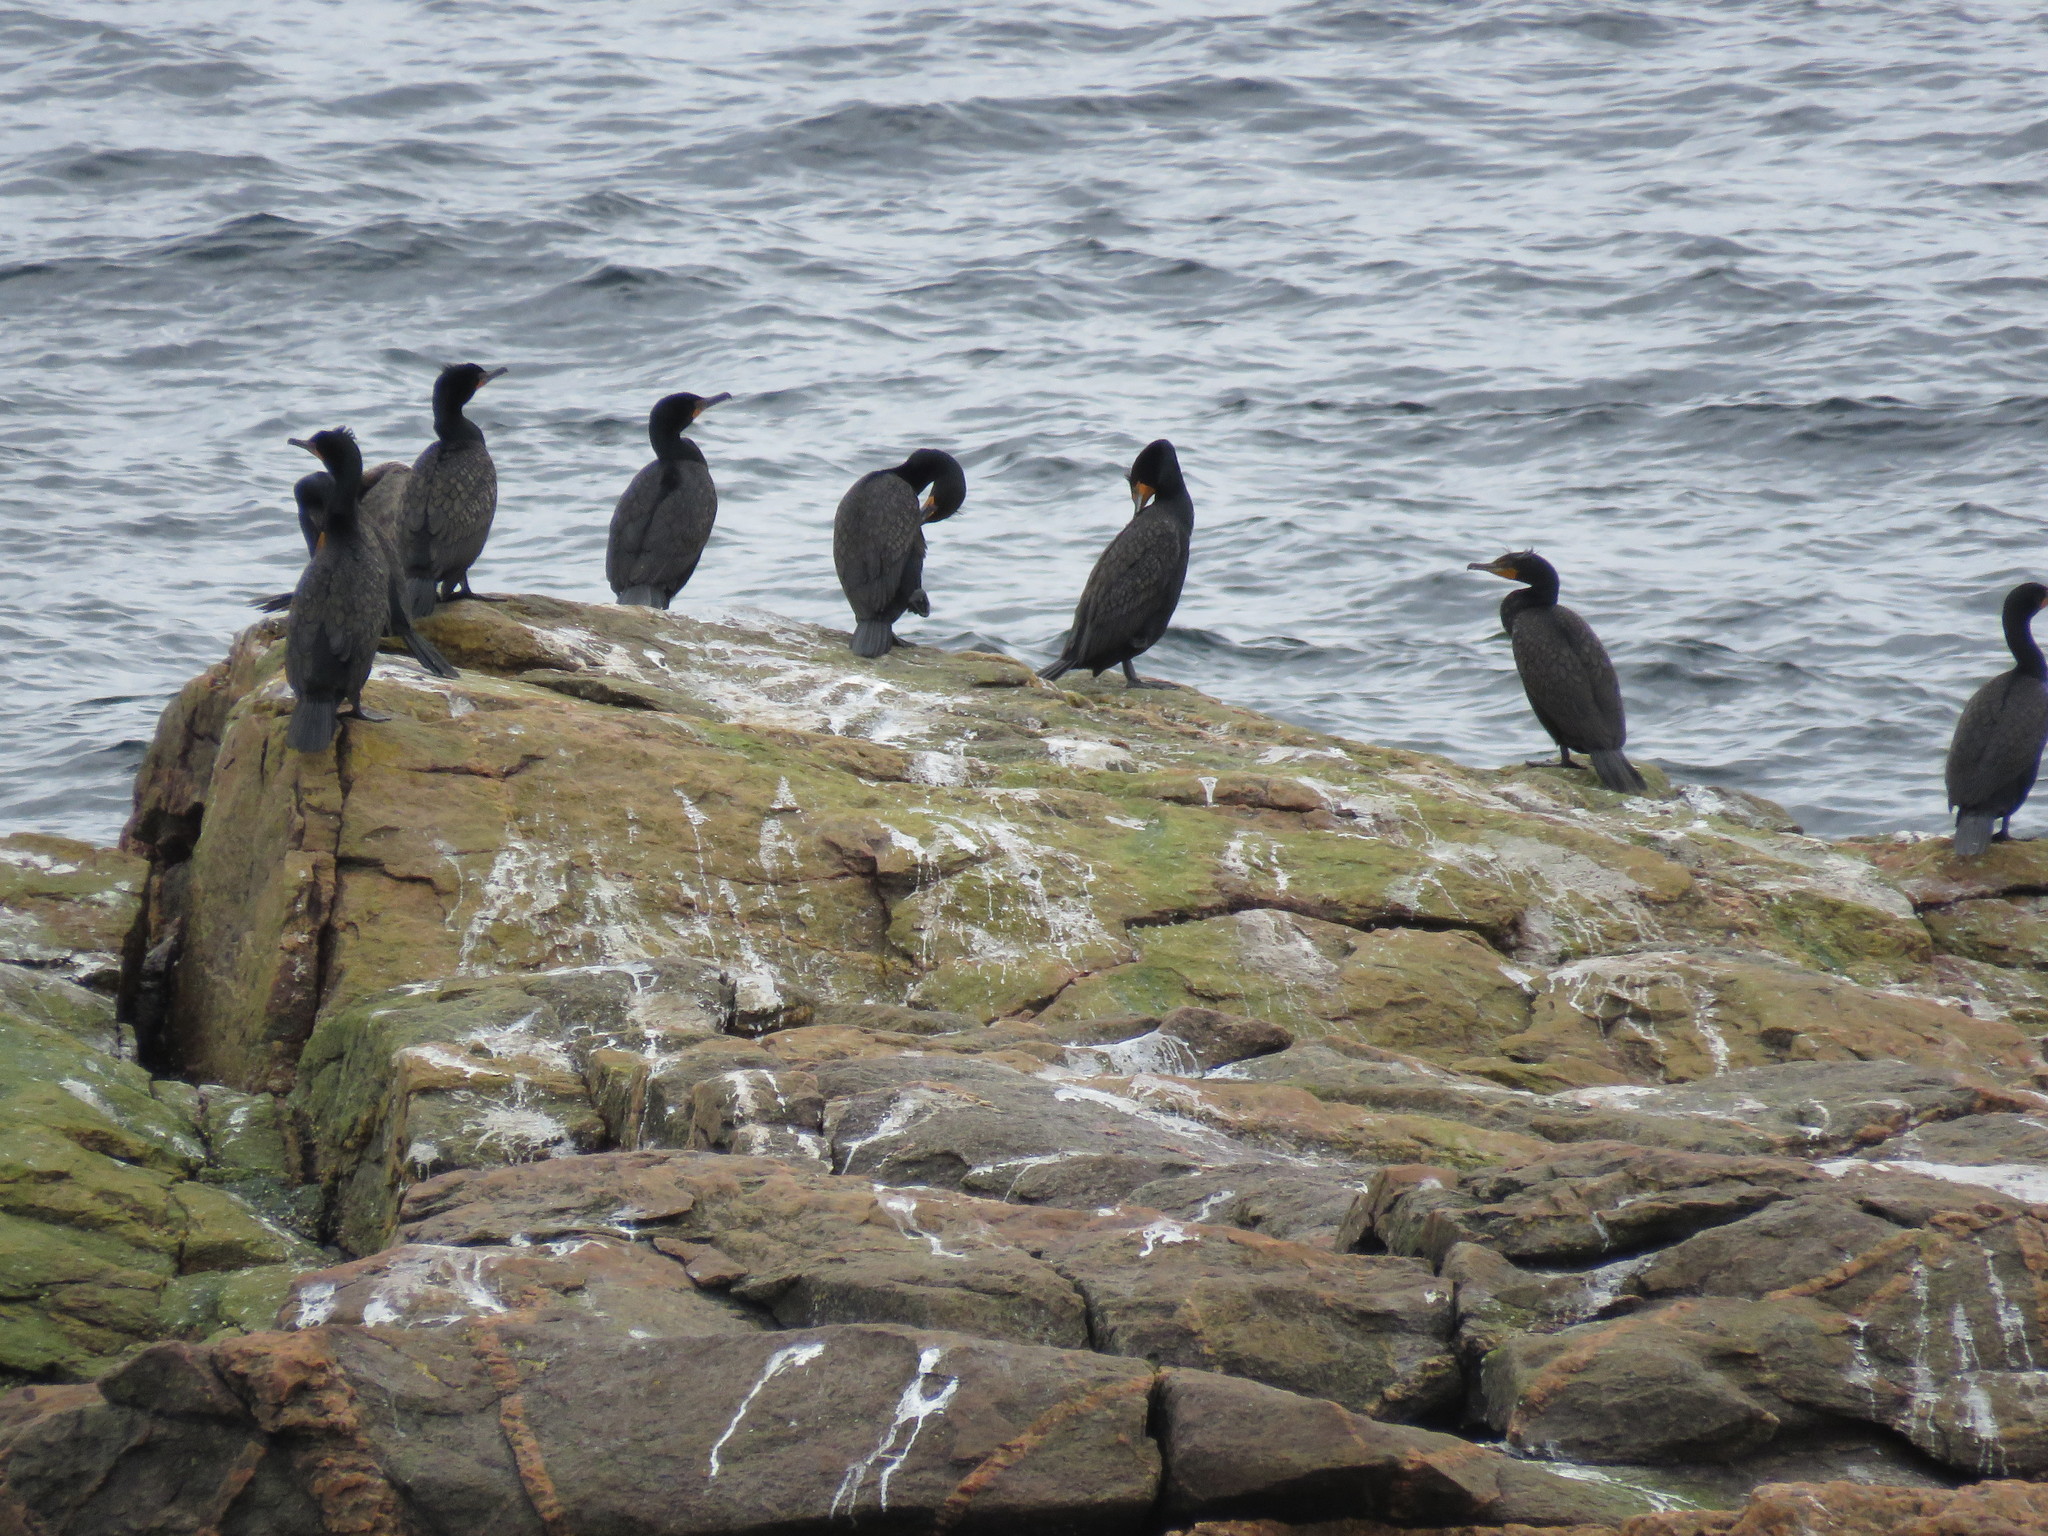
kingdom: Animalia
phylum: Chordata
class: Aves
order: Suliformes
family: Phalacrocoracidae
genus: Phalacrocorax
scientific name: Phalacrocorax auritus
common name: Double-crested cormorant
